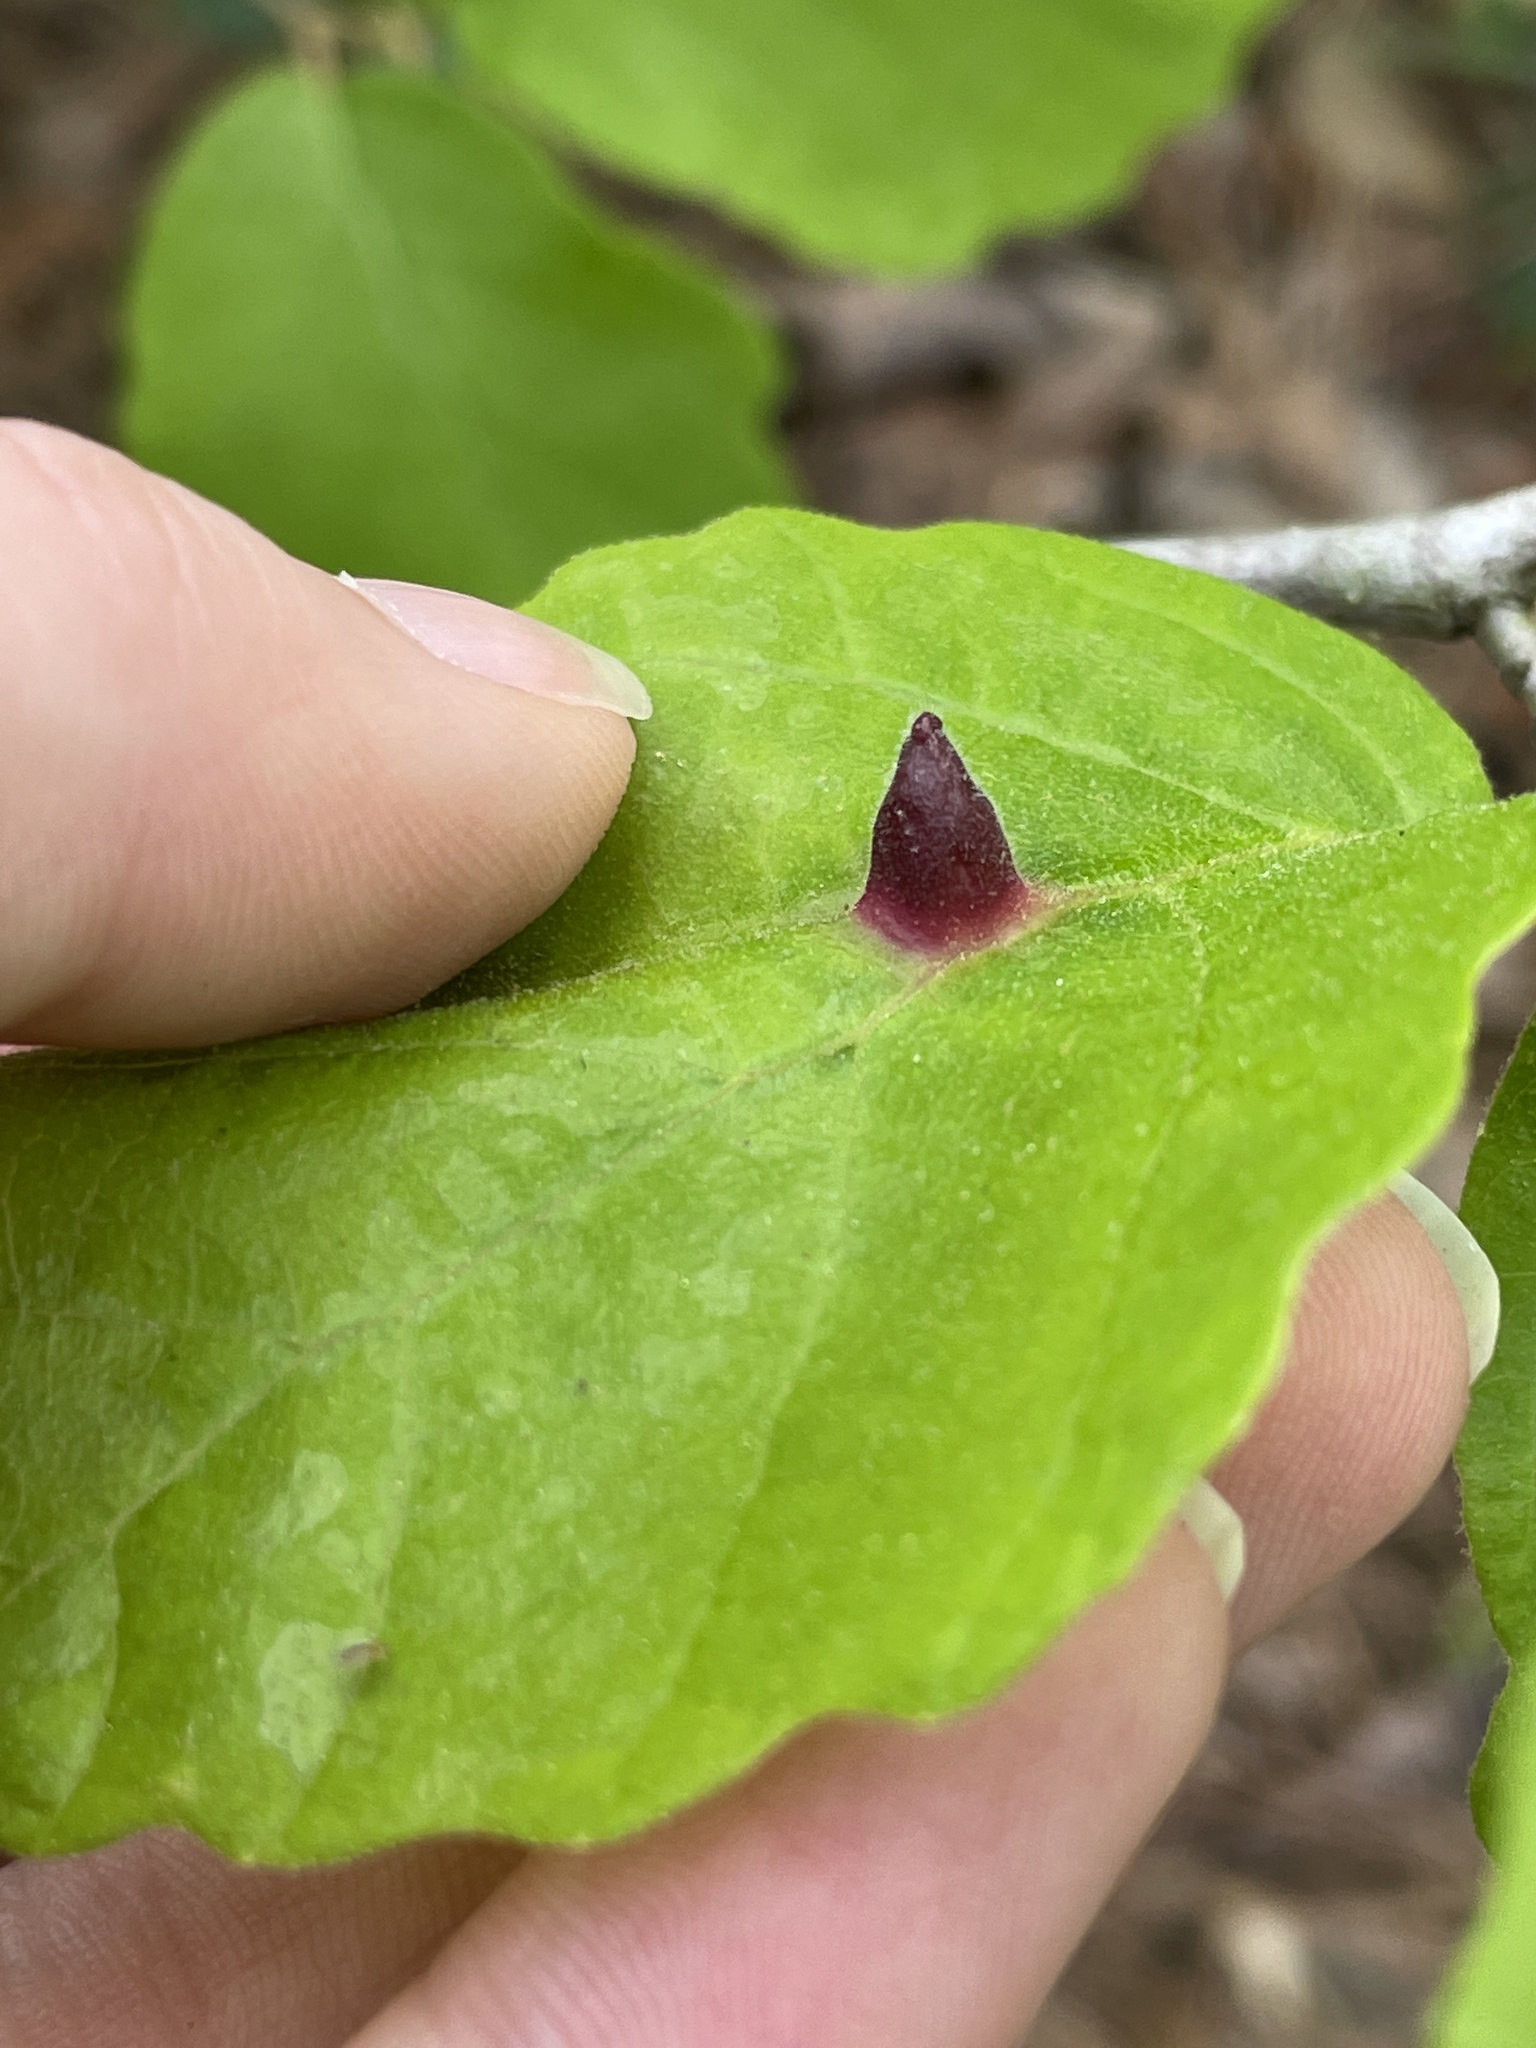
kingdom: Animalia
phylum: Arthropoda
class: Insecta
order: Hemiptera
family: Aphididae
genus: Hormaphis
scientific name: Hormaphis hamamelidis
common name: Witch-hazel cone gall aphid
